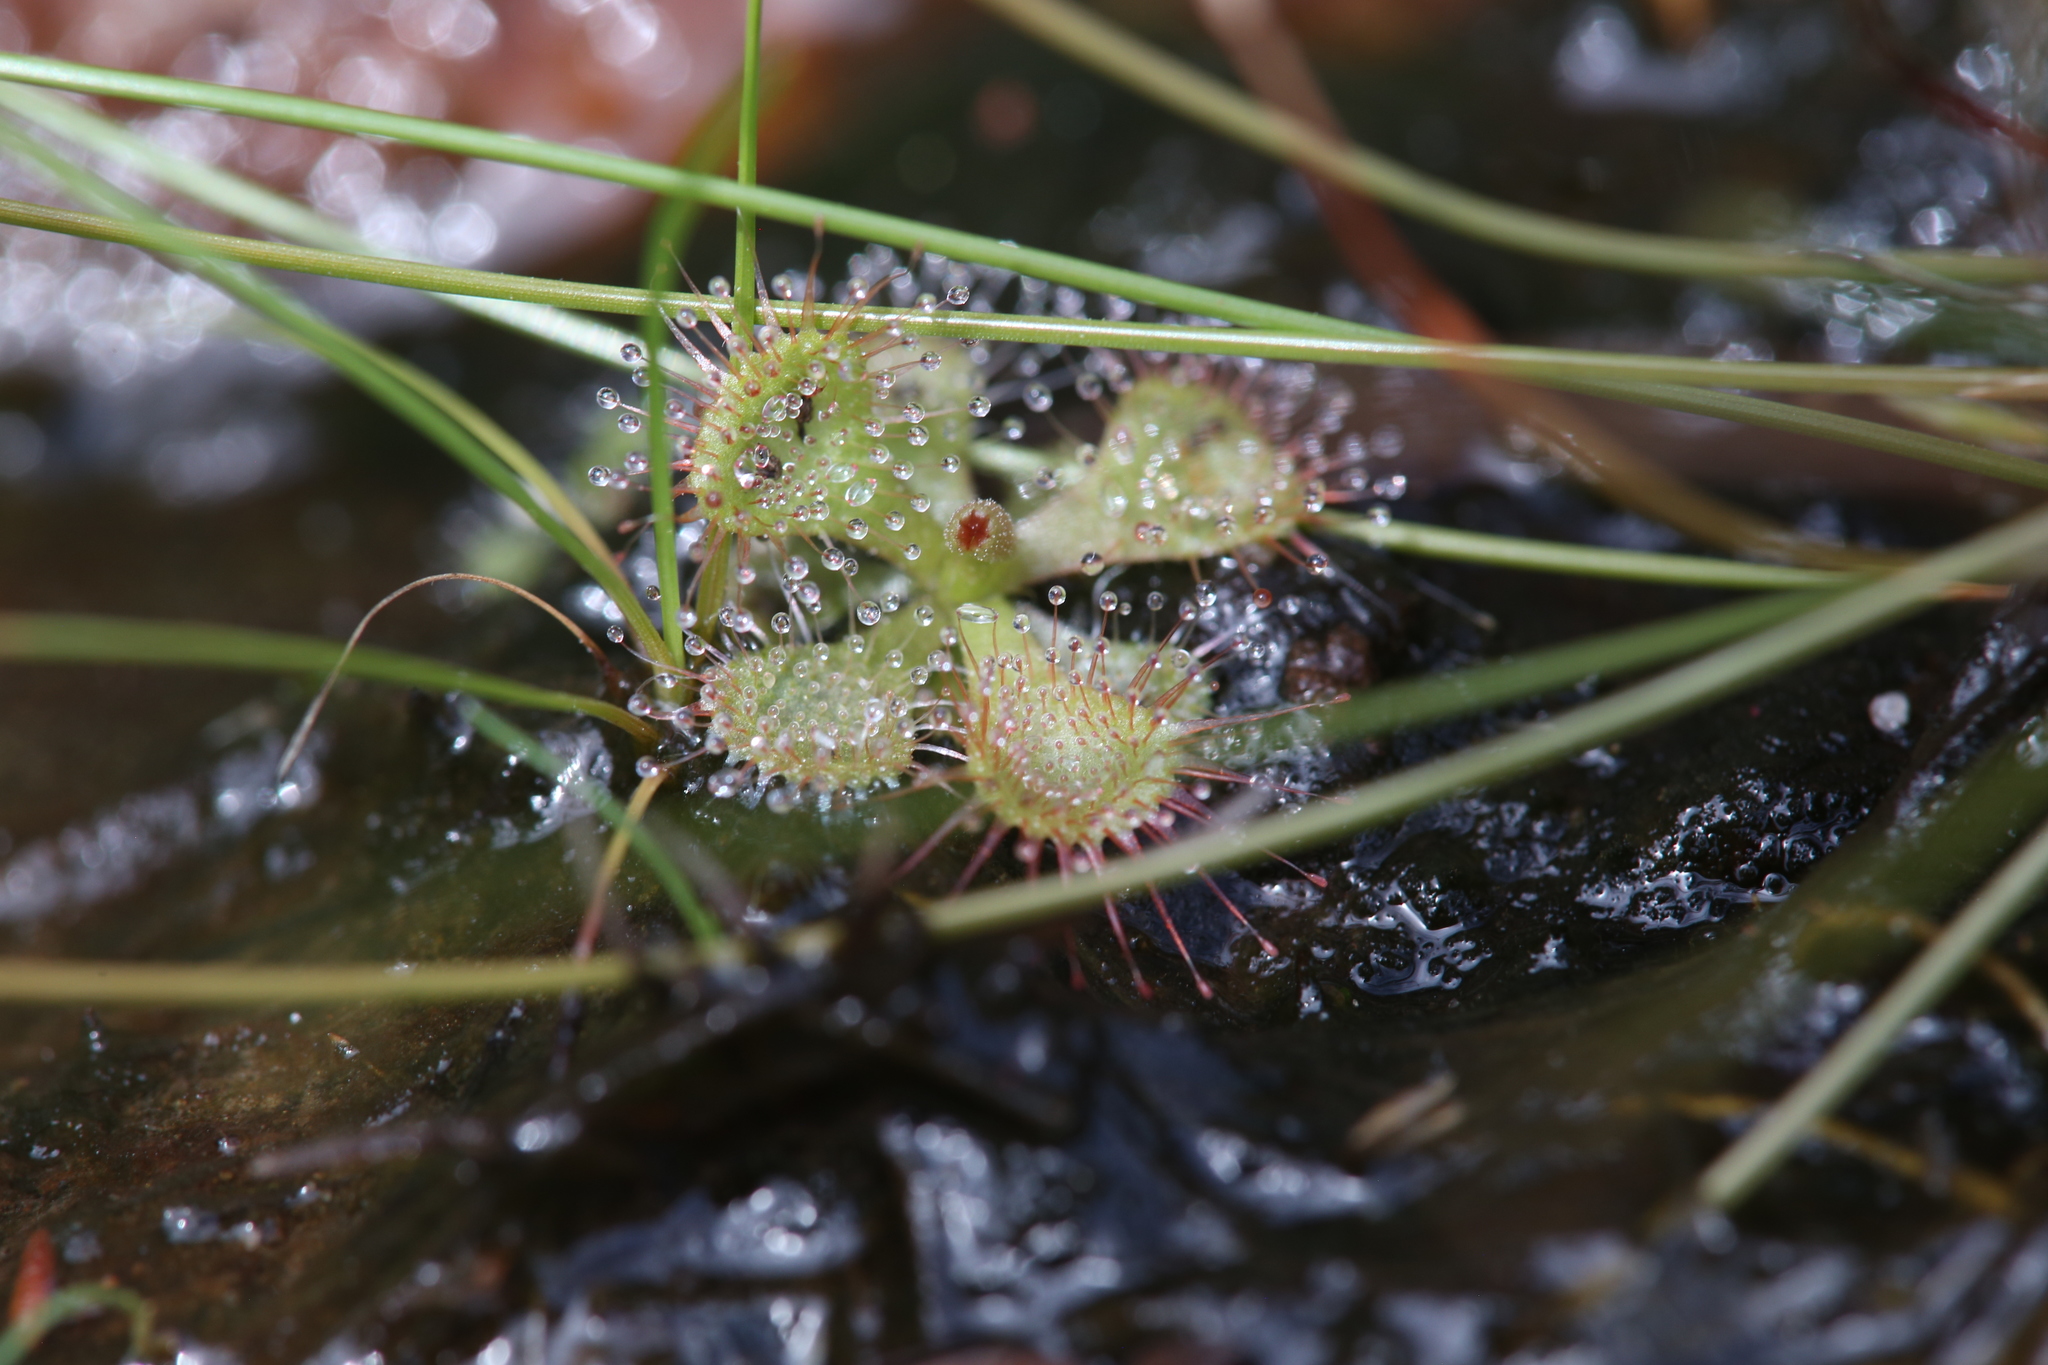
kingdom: Plantae
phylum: Tracheophyta
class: Magnoliopsida
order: Caryophyllales
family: Droseraceae
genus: Drosera
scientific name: Drosera spatulata
